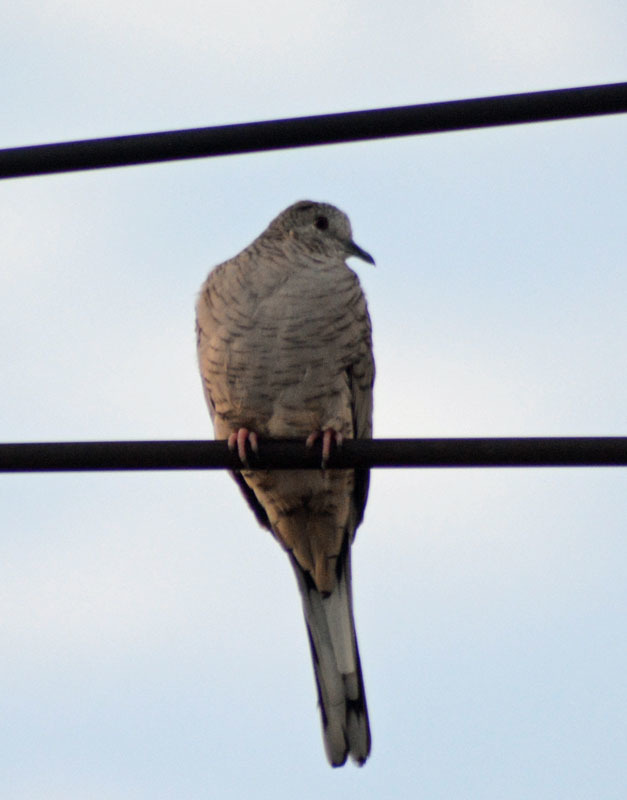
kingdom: Animalia
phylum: Chordata
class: Aves
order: Columbiformes
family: Columbidae
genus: Columbina
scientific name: Columbina inca
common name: Inca dove
